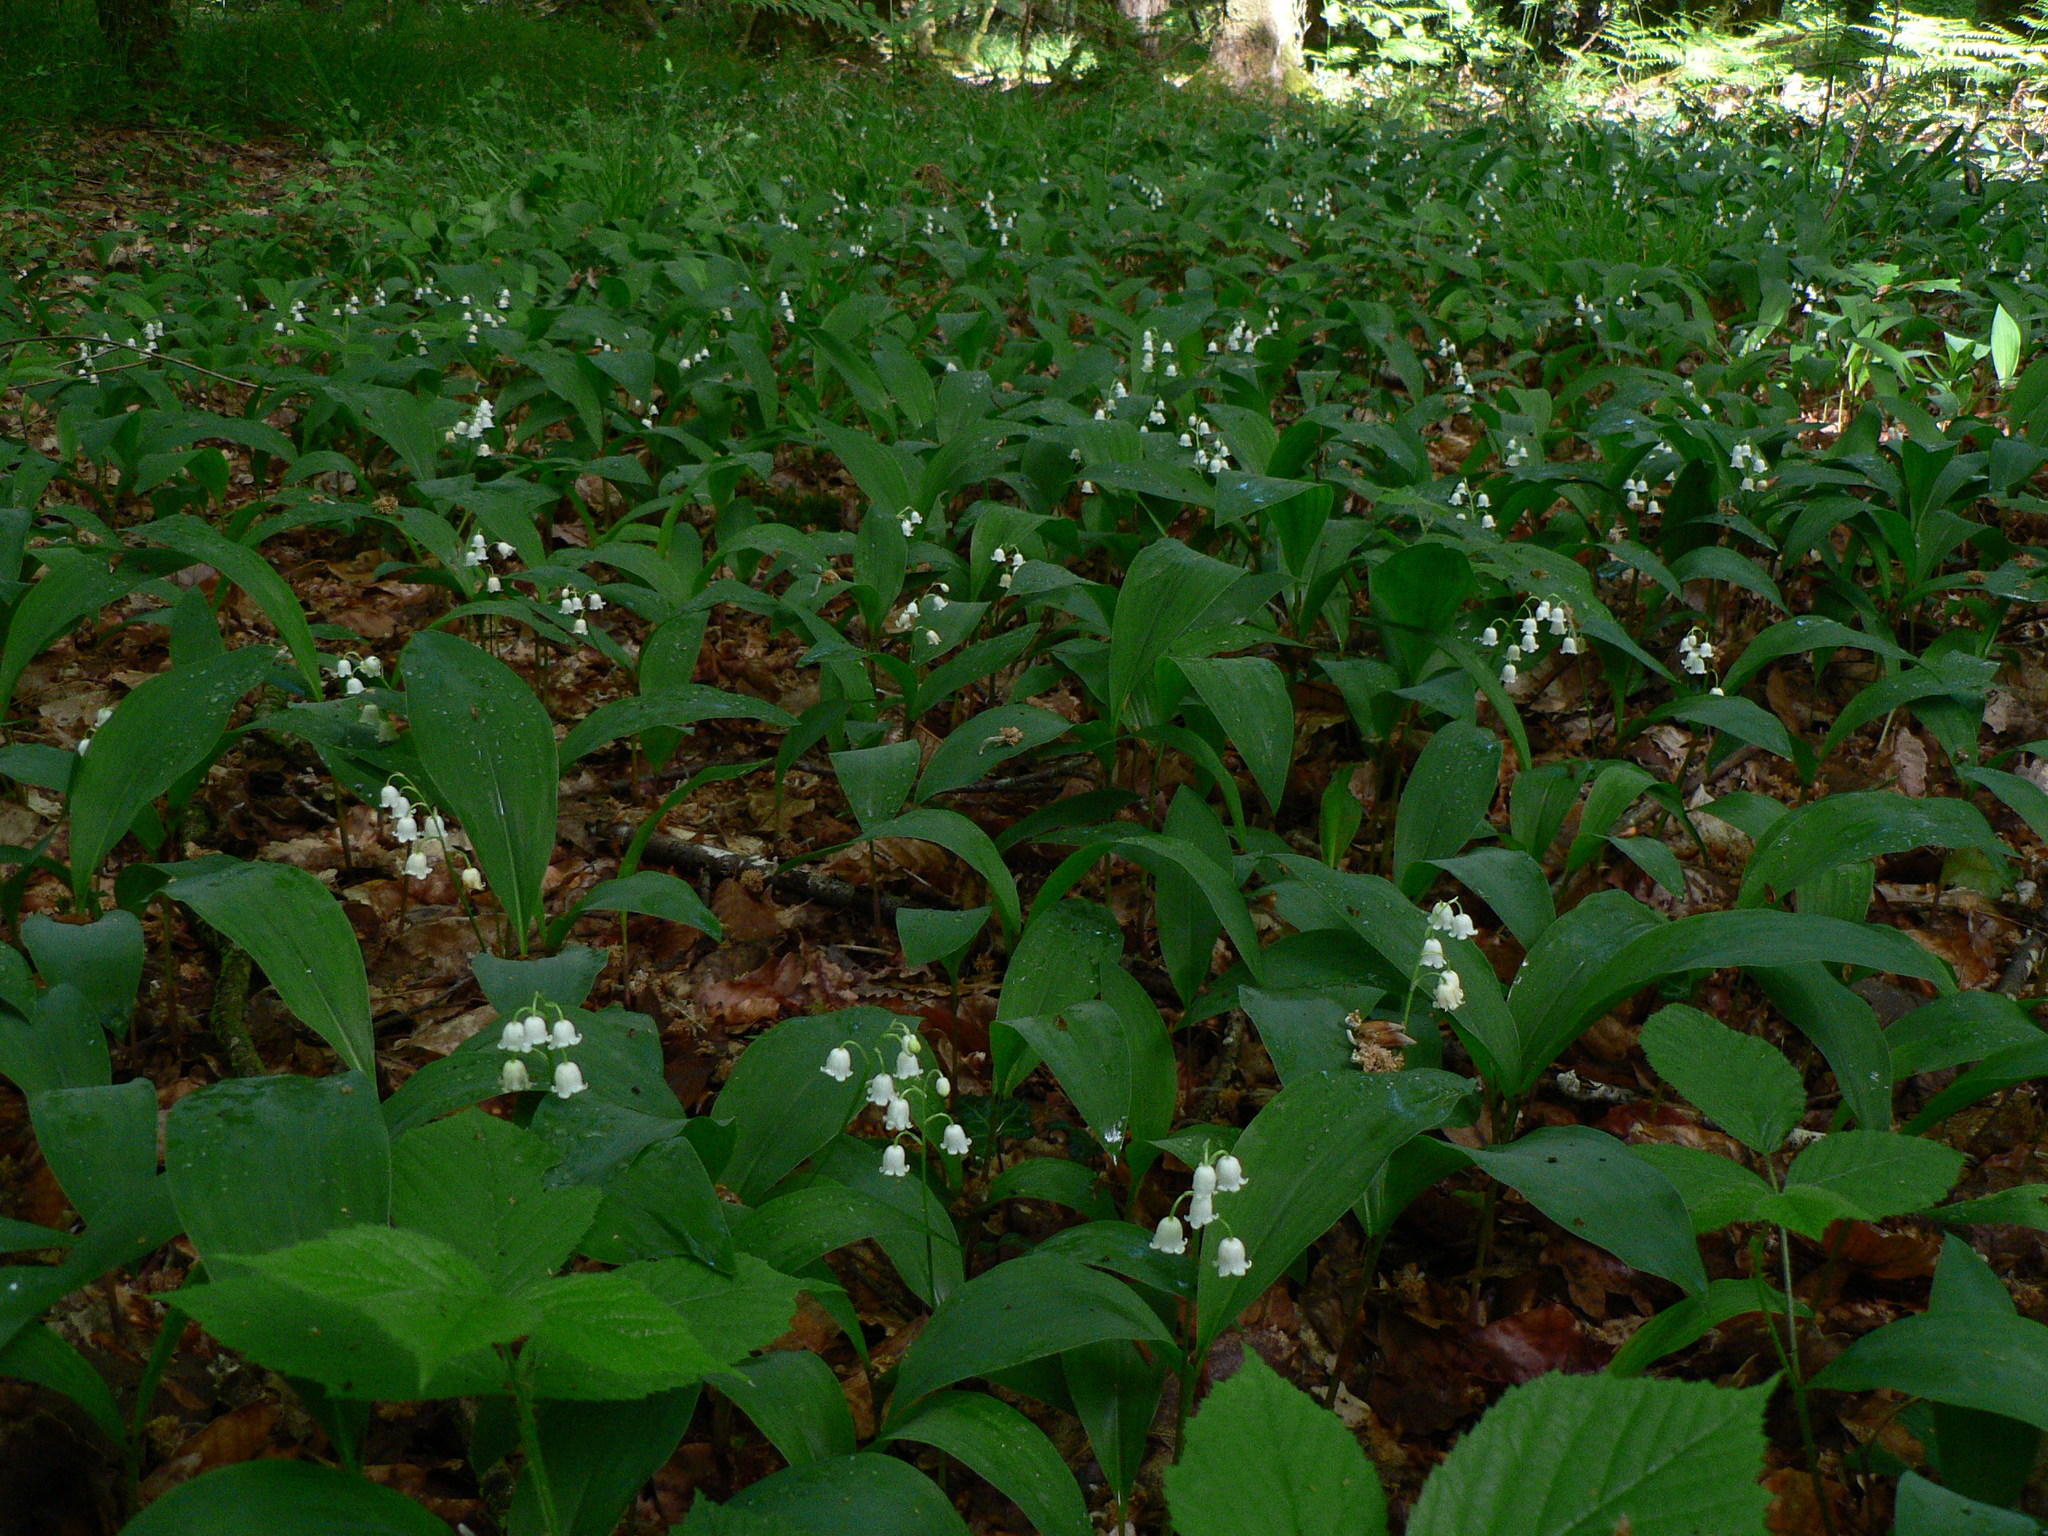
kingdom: Plantae
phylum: Tracheophyta
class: Liliopsida
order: Asparagales
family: Asparagaceae
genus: Convallaria
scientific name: Convallaria majalis
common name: Lily-of-the-valley
